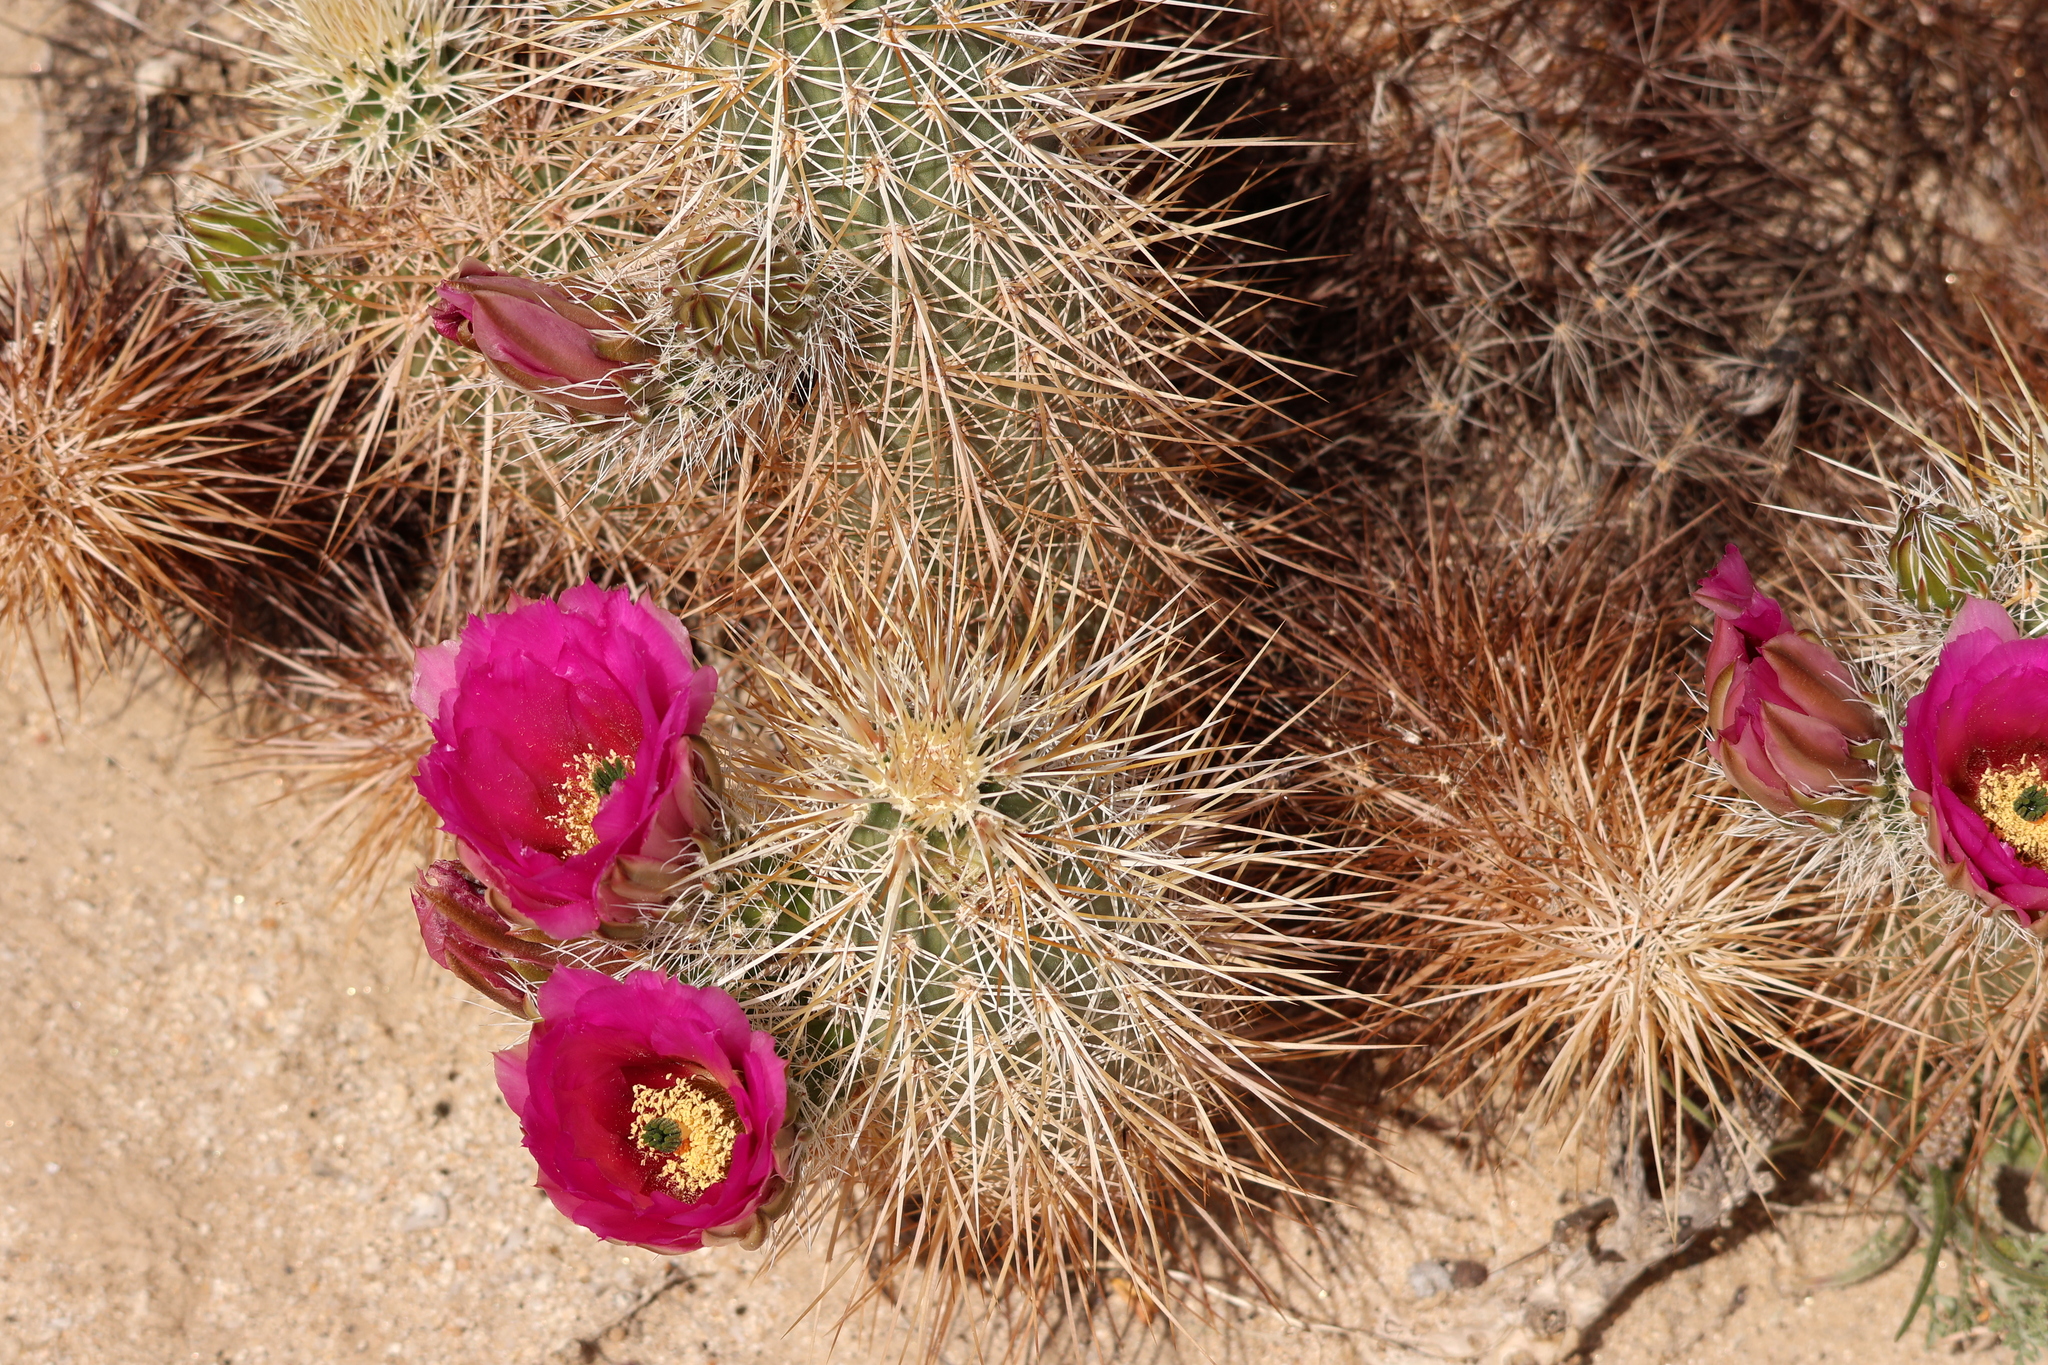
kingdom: Plantae
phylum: Tracheophyta
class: Magnoliopsida
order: Caryophyllales
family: Cactaceae
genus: Echinocereus
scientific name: Echinocereus engelmannii
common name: Engelmann's hedgehog cactus
